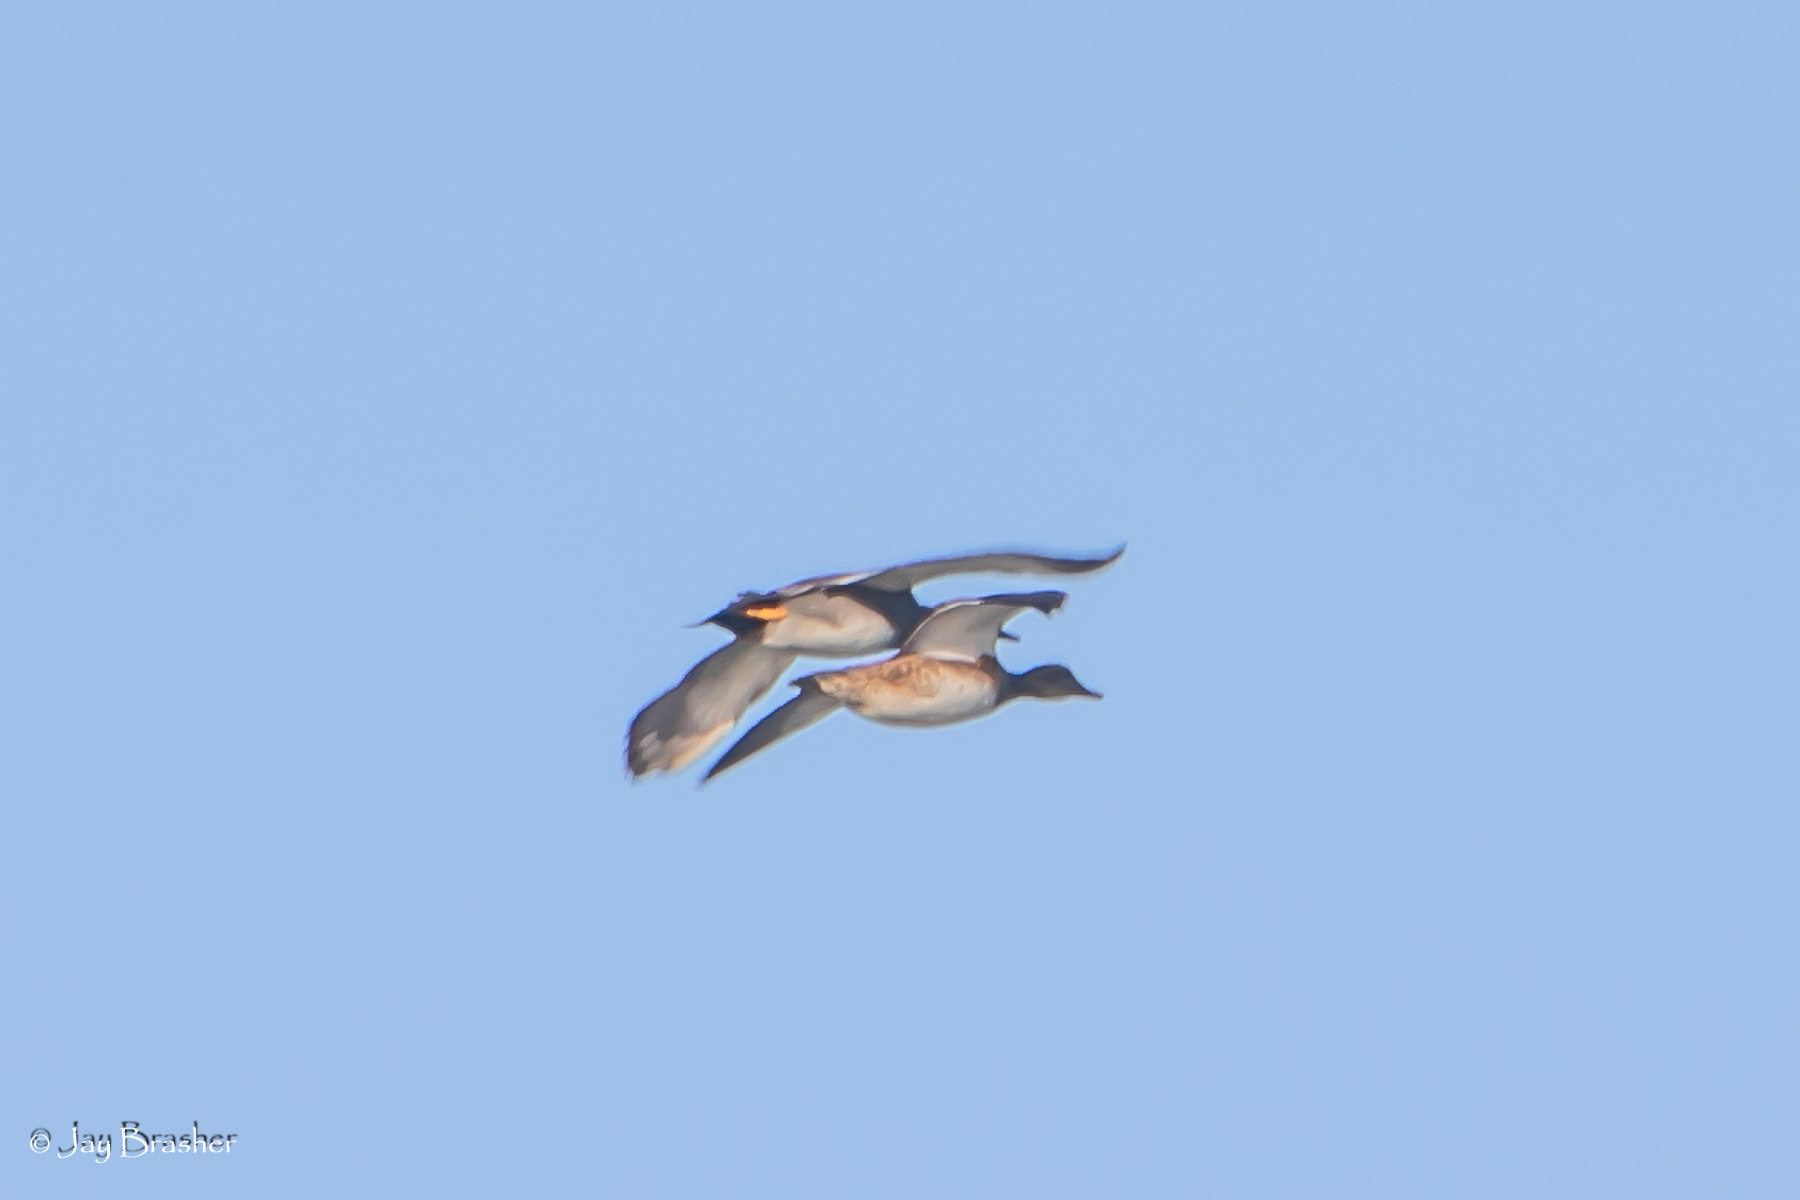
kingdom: Animalia
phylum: Chordata
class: Aves
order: Anseriformes
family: Anatidae
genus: Anas
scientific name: Anas platyrhynchos
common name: Mallard
